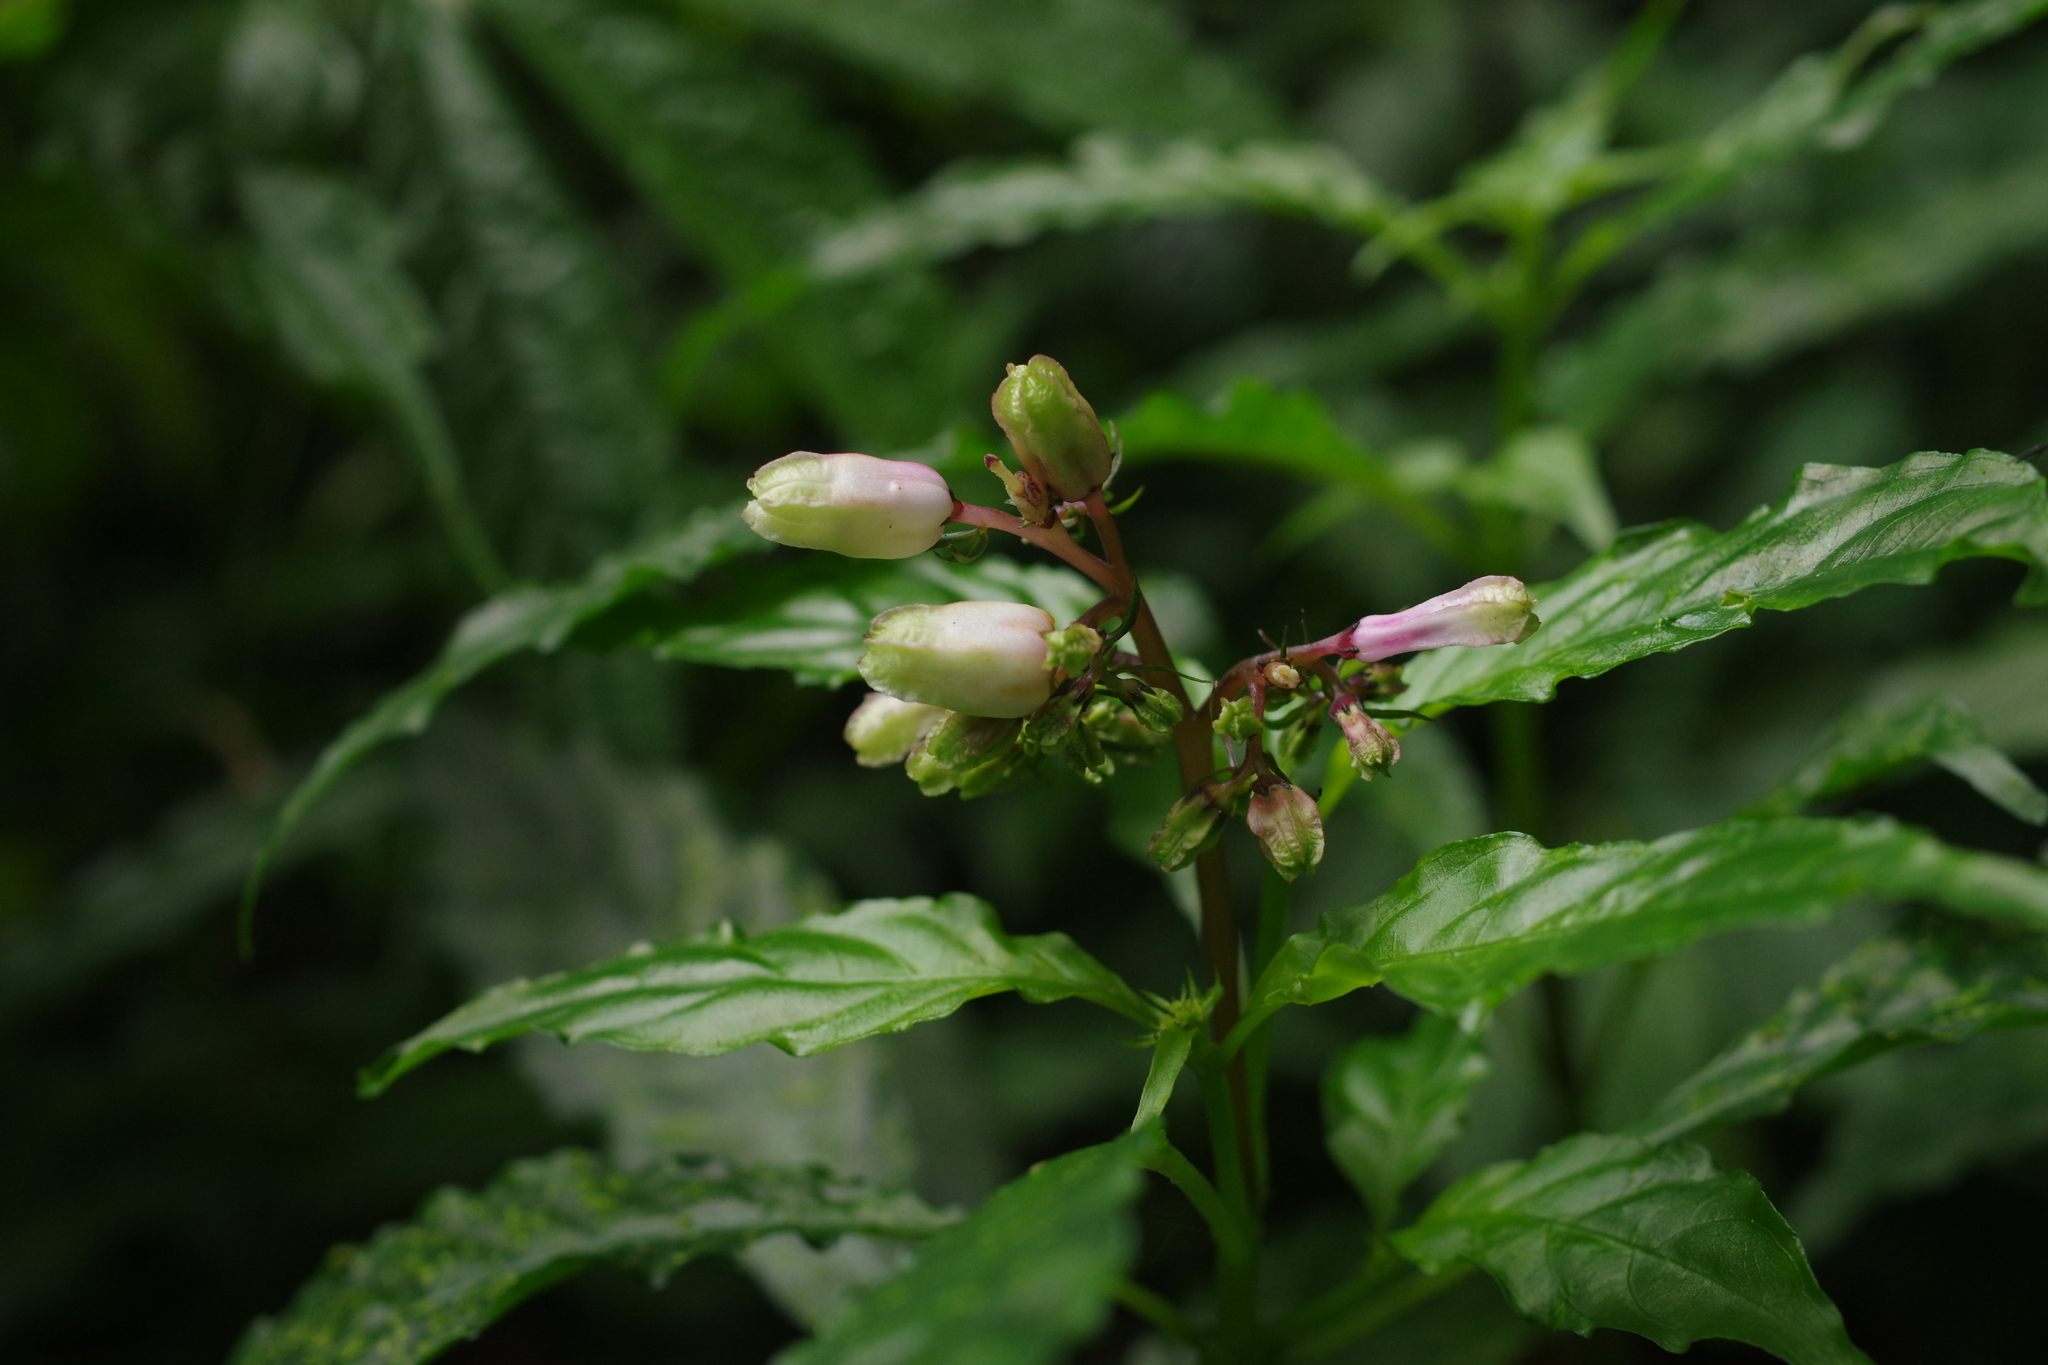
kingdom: Plantae
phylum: Tracheophyta
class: Magnoliopsida
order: Gentianales
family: Rubiaceae
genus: Ophiorrhiza
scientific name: Ophiorrhiza japonica
